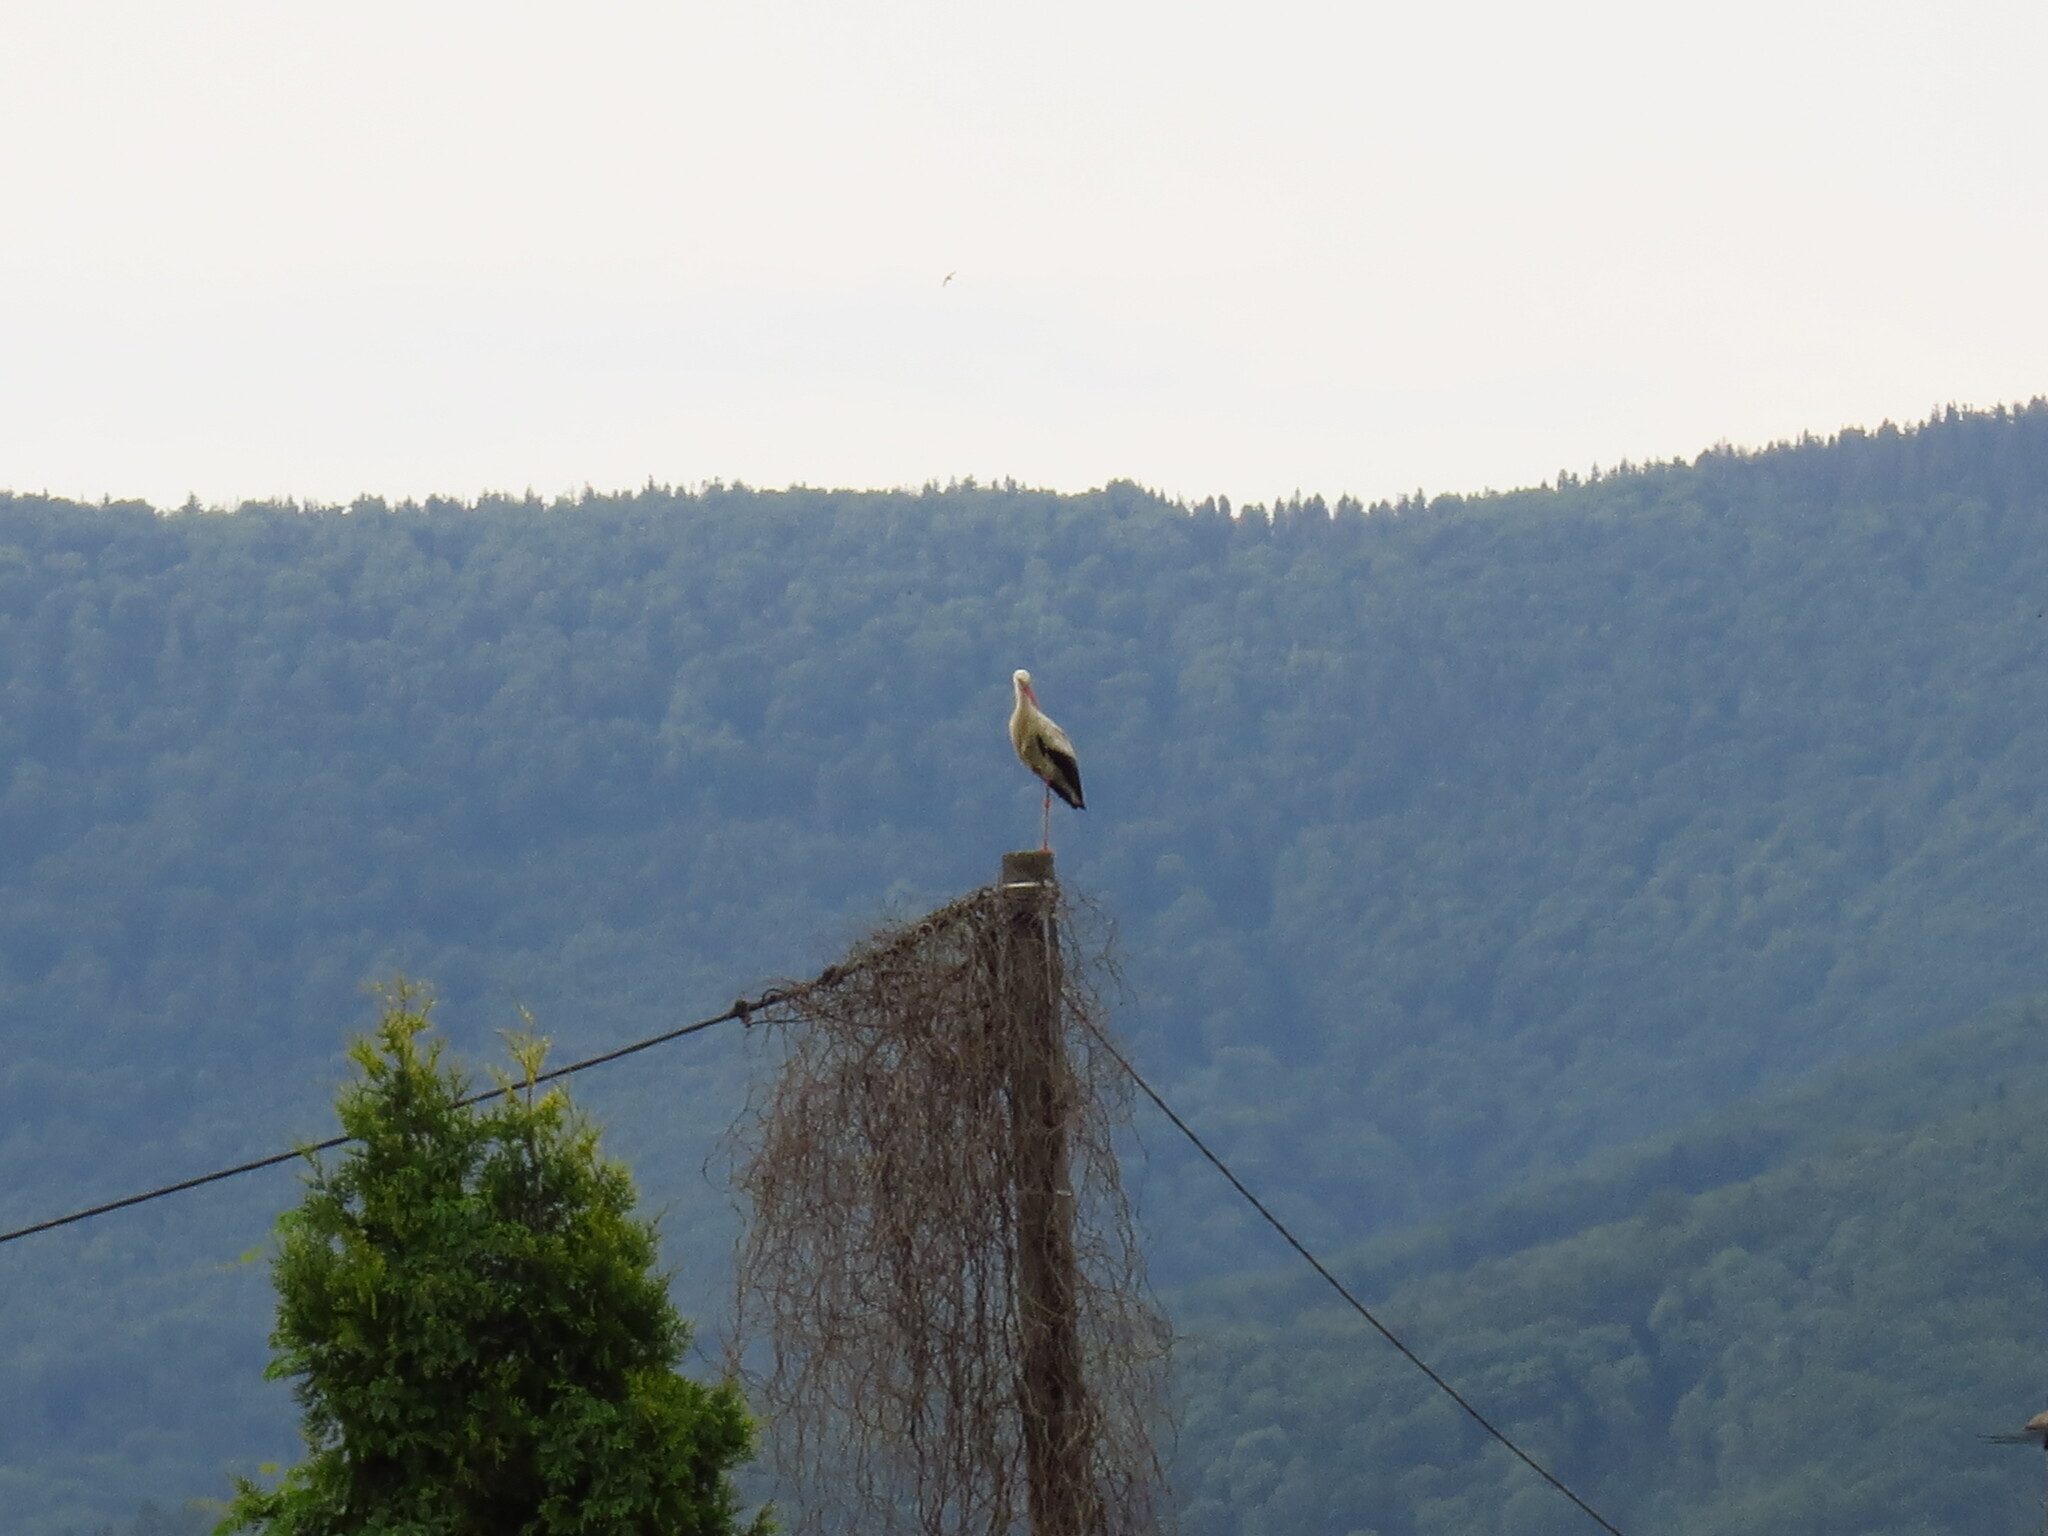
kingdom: Animalia
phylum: Chordata
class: Aves
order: Ciconiiformes
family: Ciconiidae
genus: Ciconia
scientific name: Ciconia ciconia
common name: White stork
